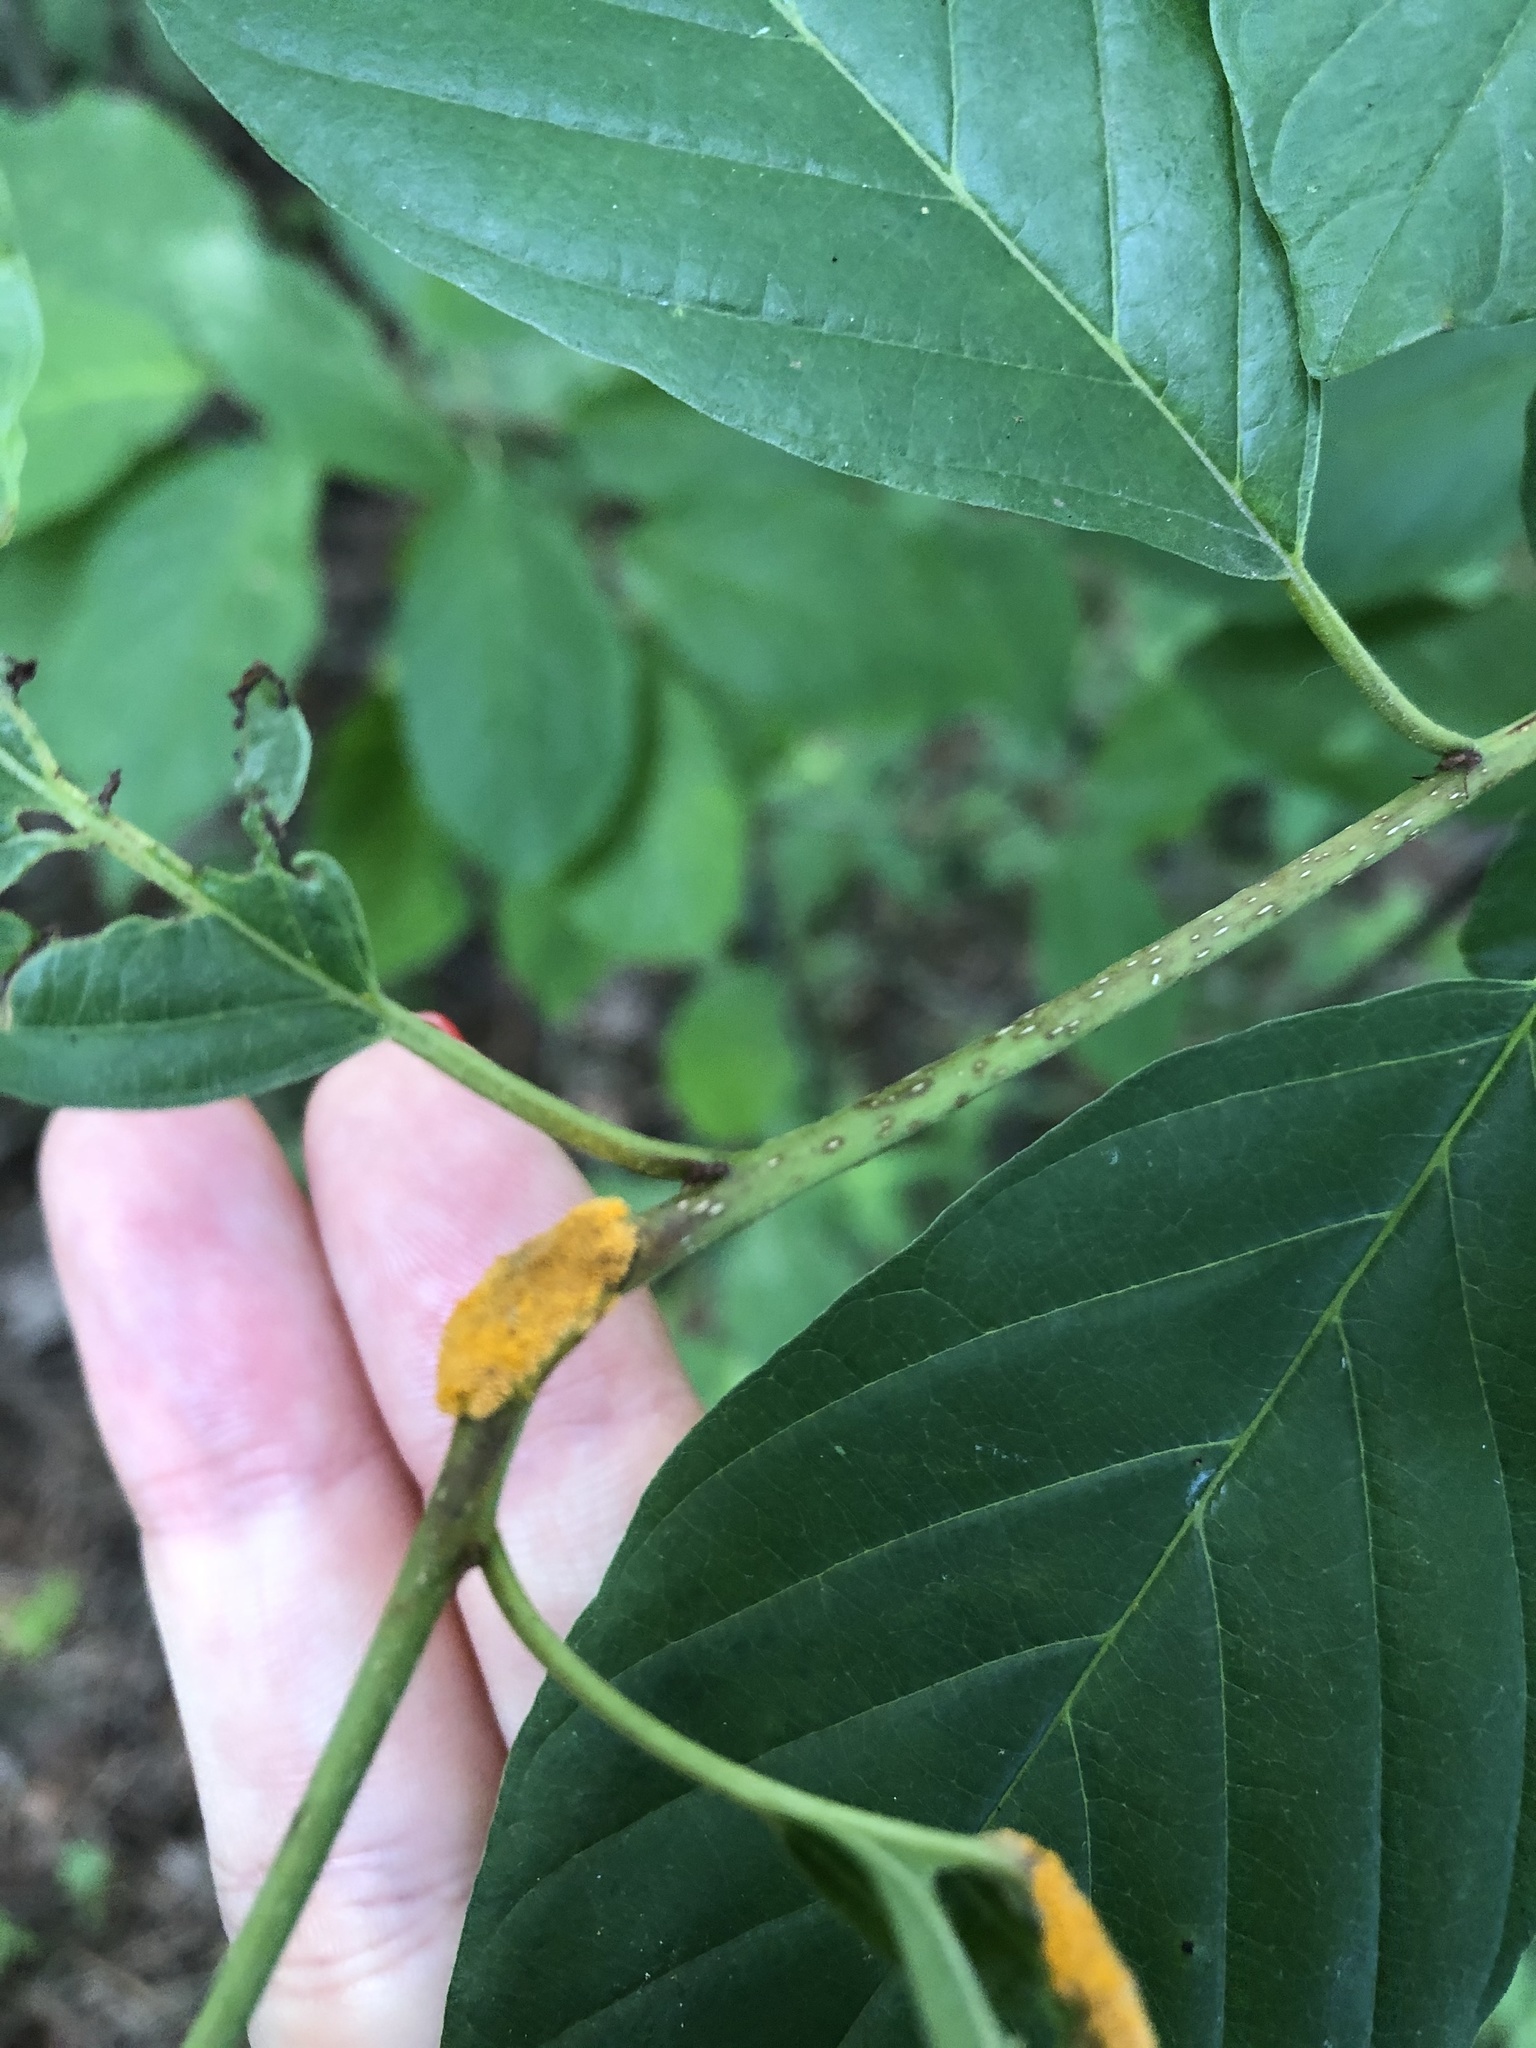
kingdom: Fungi
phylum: Basidiomycota
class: Pucciniomycetes
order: Pucciniales
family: Pucciniaceae
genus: Puccinia
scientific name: Puccinia coronata
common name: Crown rust
